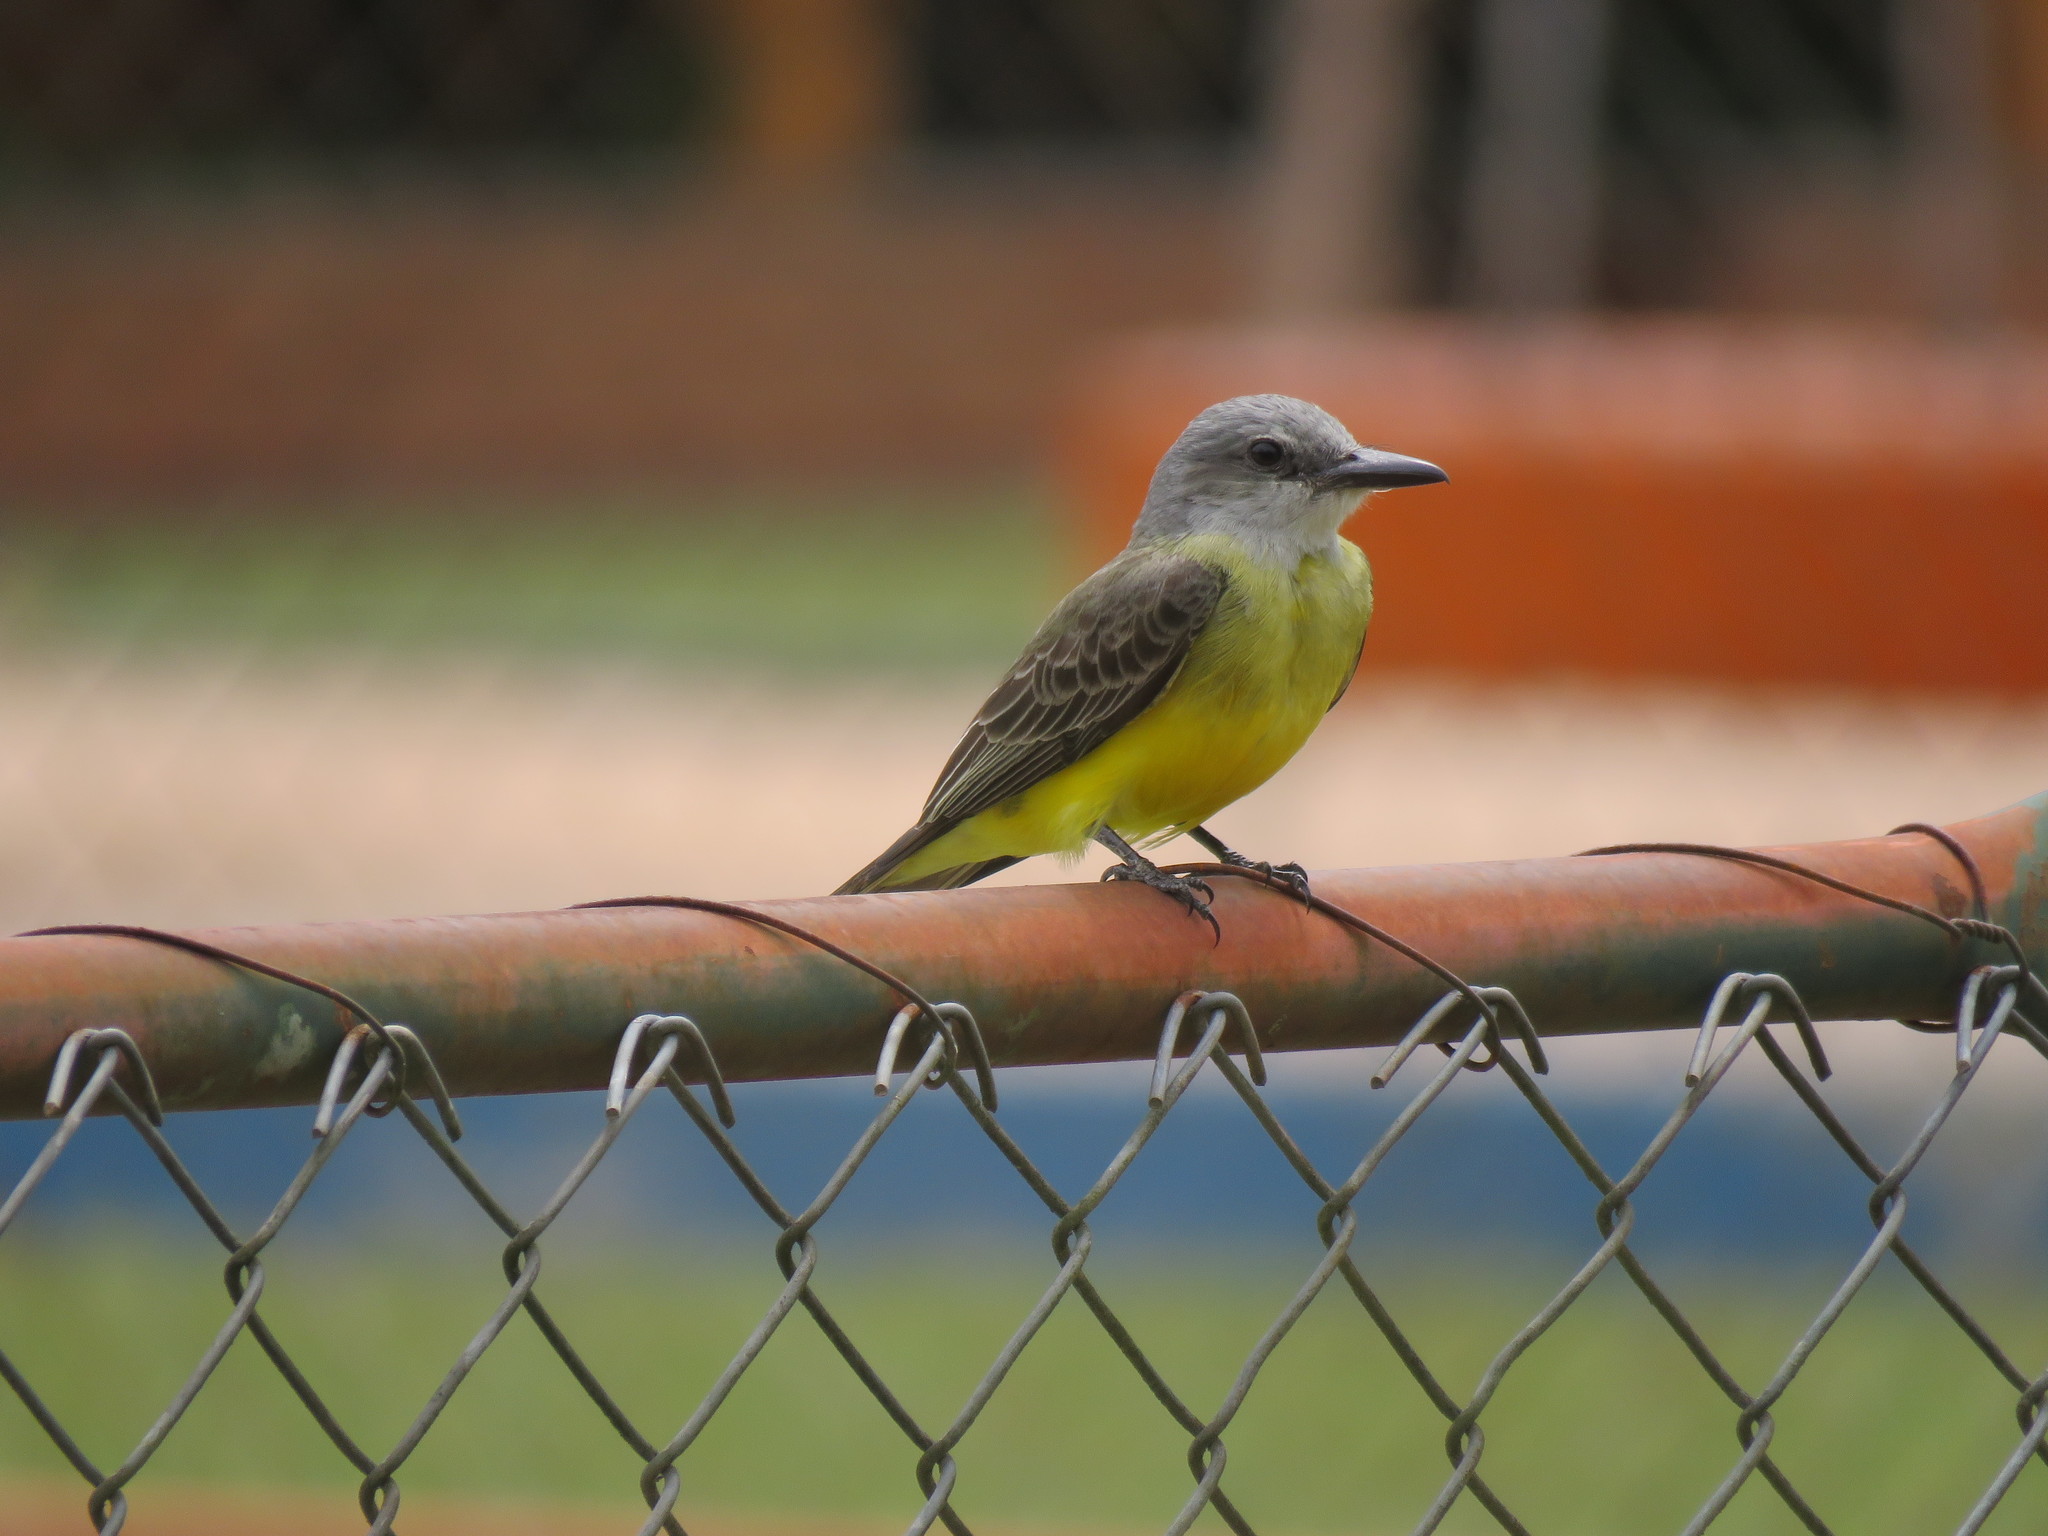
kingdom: Animalia
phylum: Chordata
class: Aves
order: Passeriformes
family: Tyrannidae
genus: Tyrannus
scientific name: Tyrannus melancholicus
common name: Tropical kingbird
